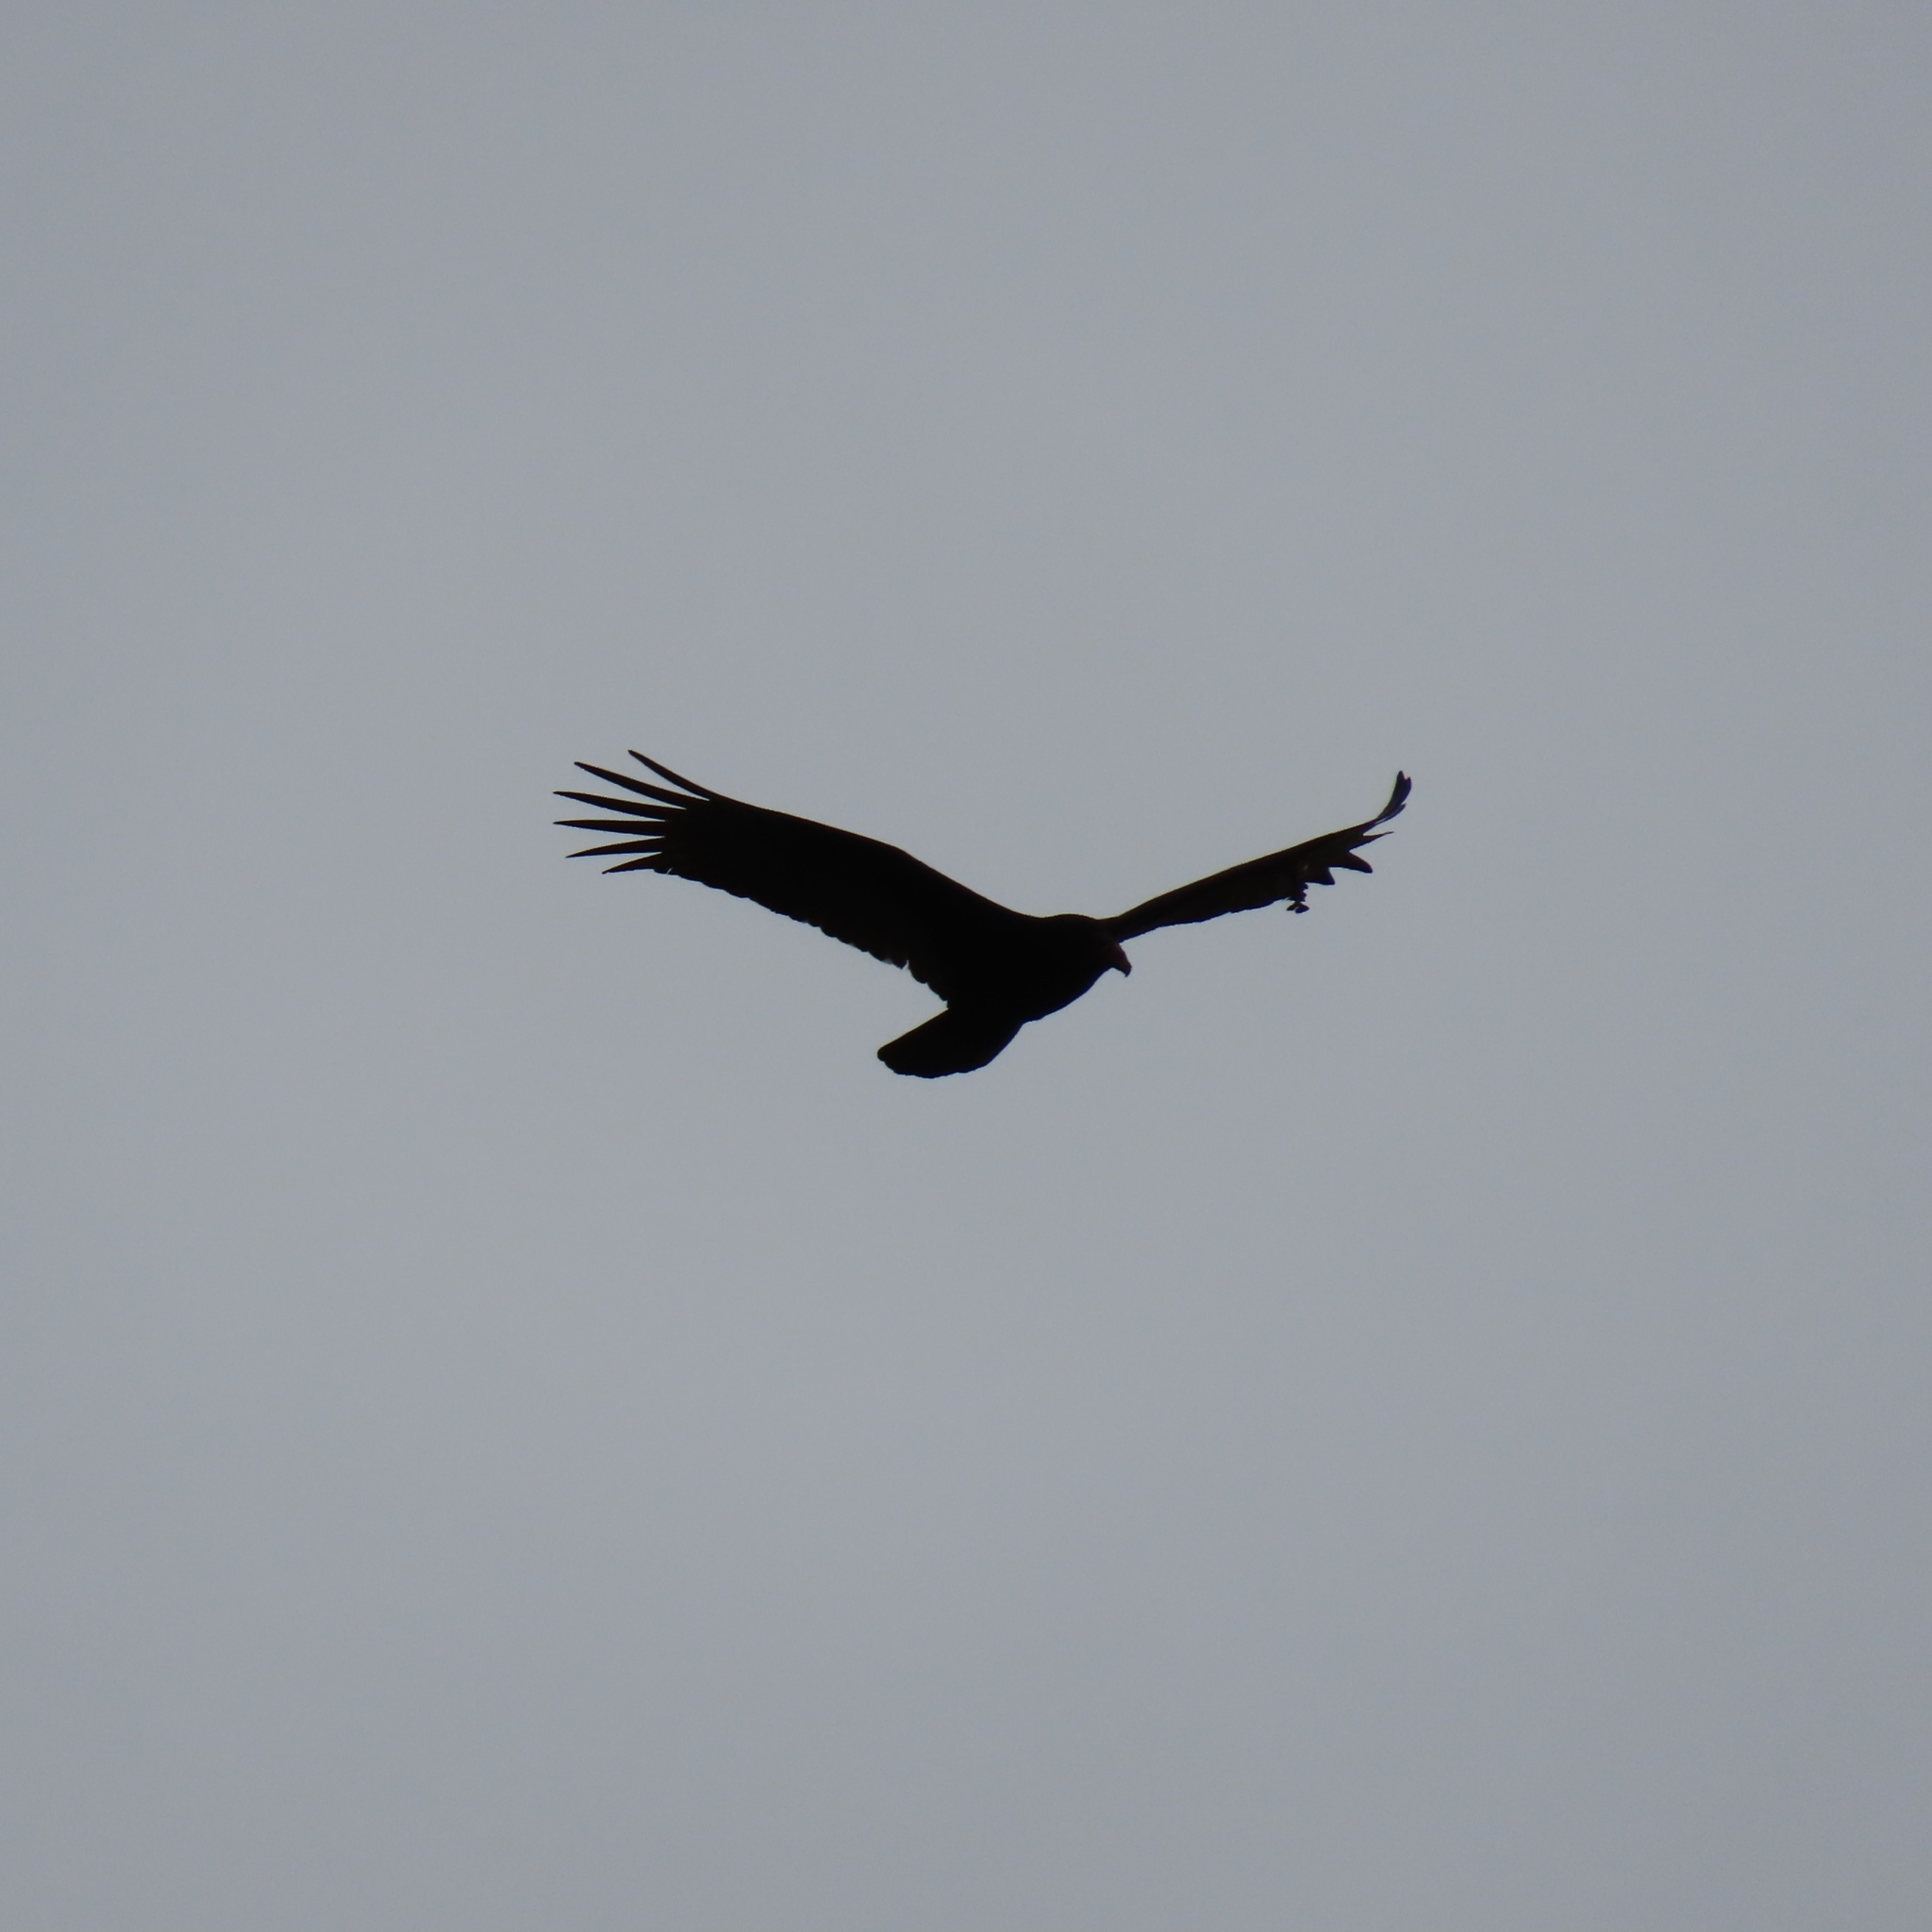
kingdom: Animalia
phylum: Chordata
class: Aves
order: Accipitriformes
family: Cathartidae
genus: Cathartes
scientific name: Cathartes aura
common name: Turkey vulture
